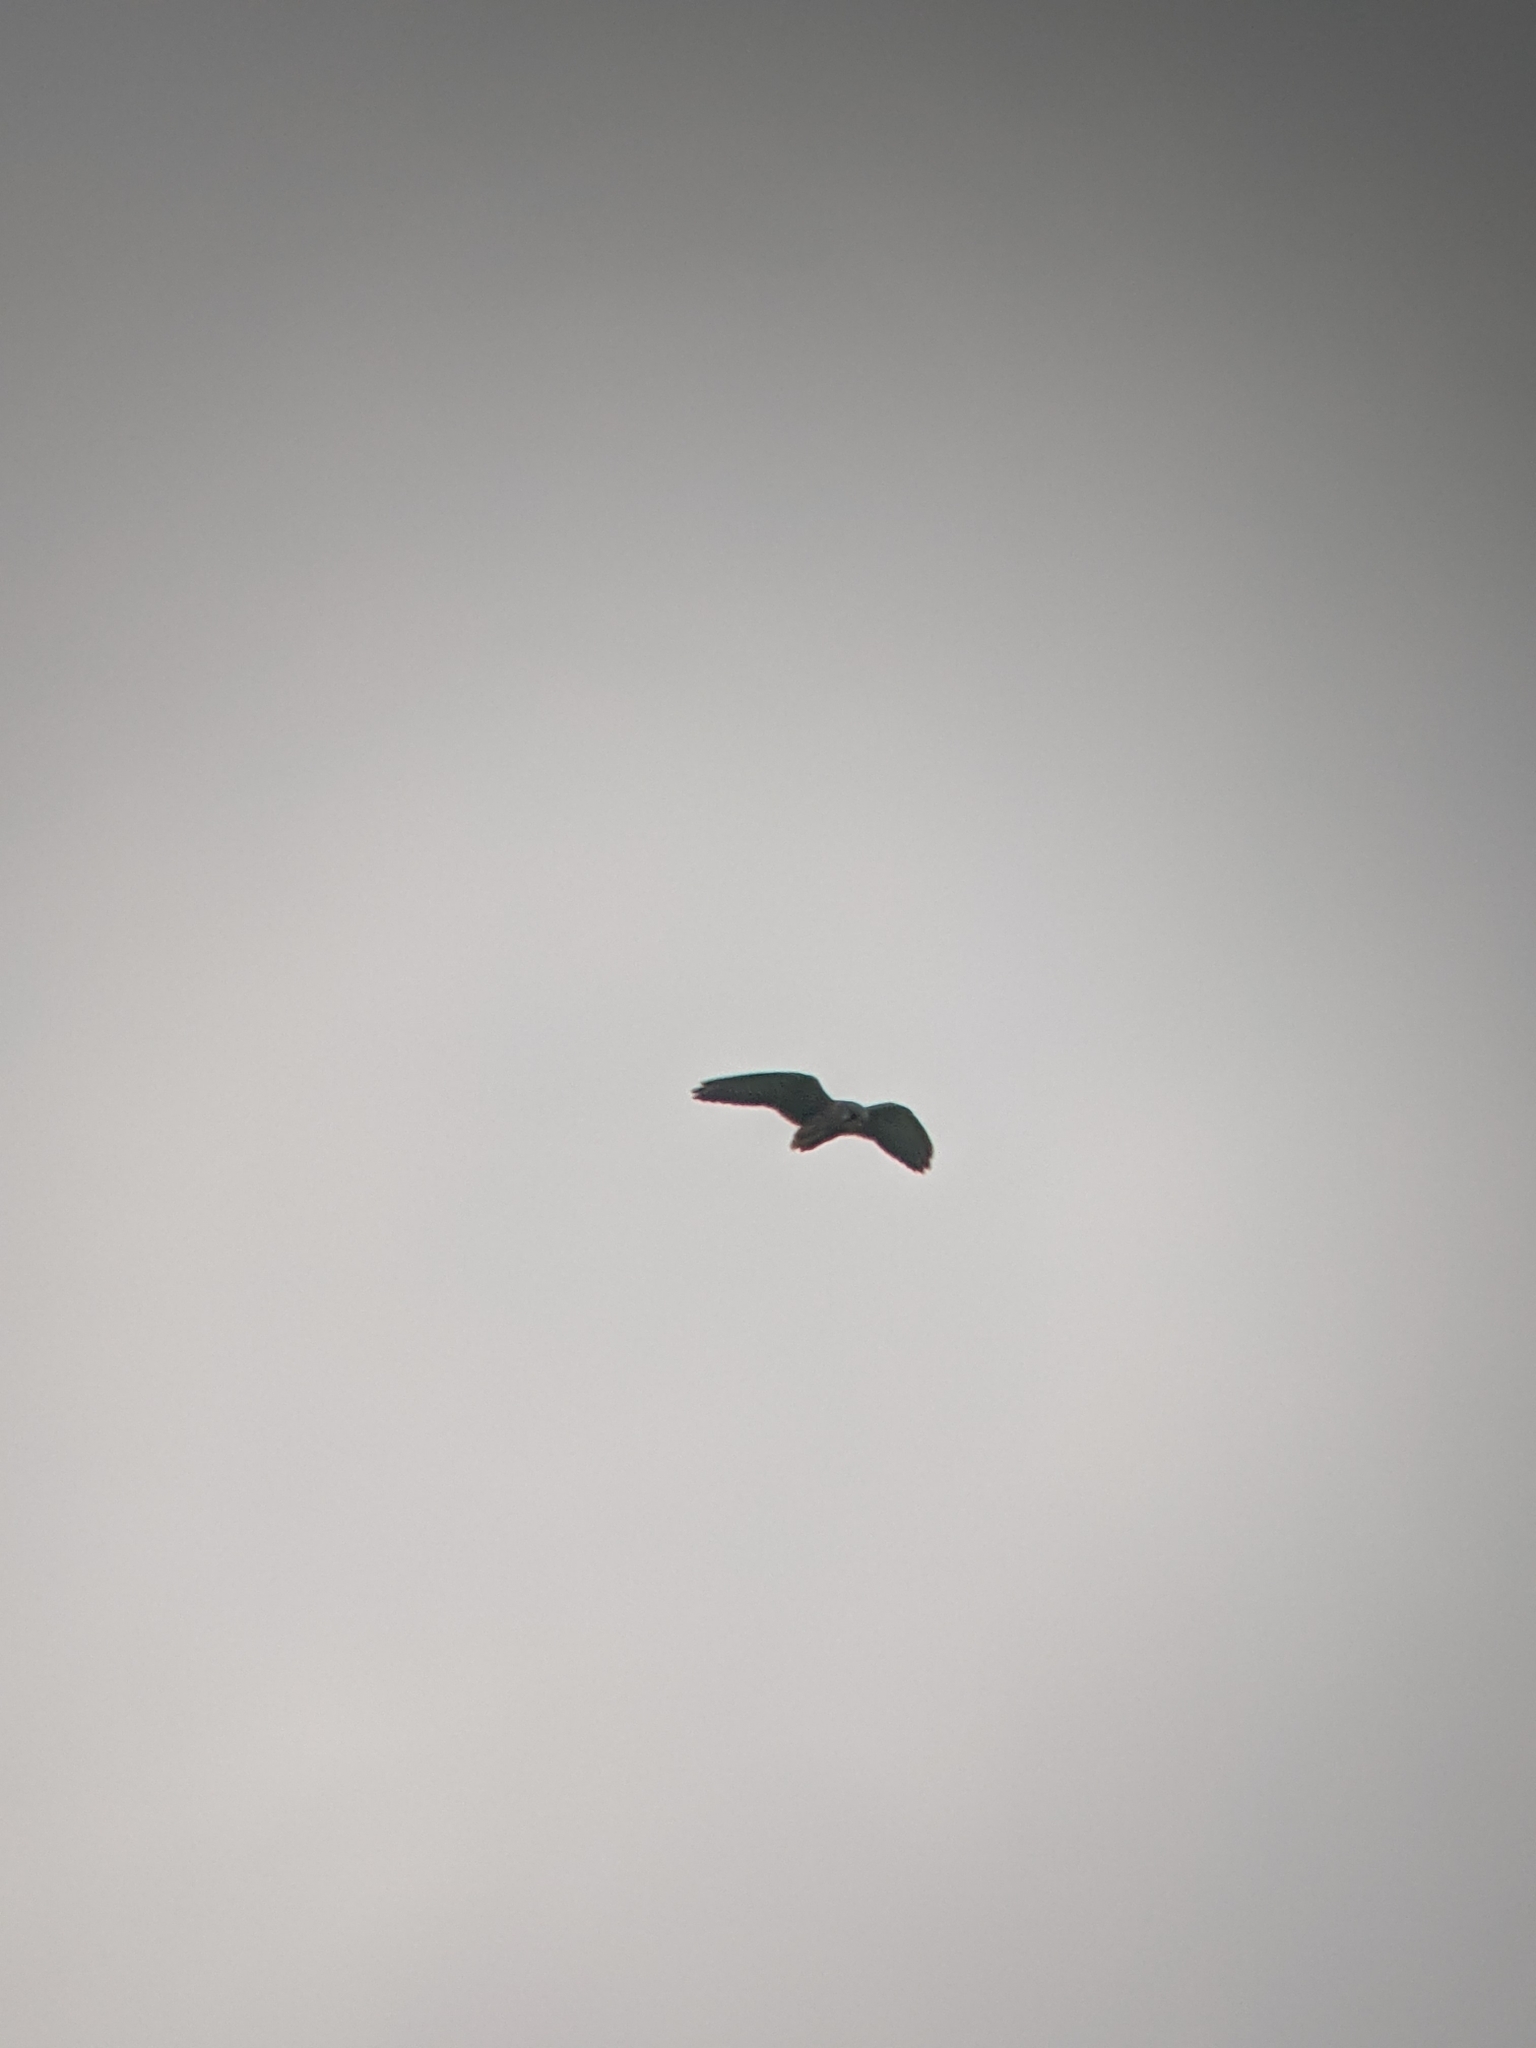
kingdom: Animalia
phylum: Chordata
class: Aves
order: Falconiformes
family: Falconidae
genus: Falco
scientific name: Falco tinnunculus
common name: Common kestrel
